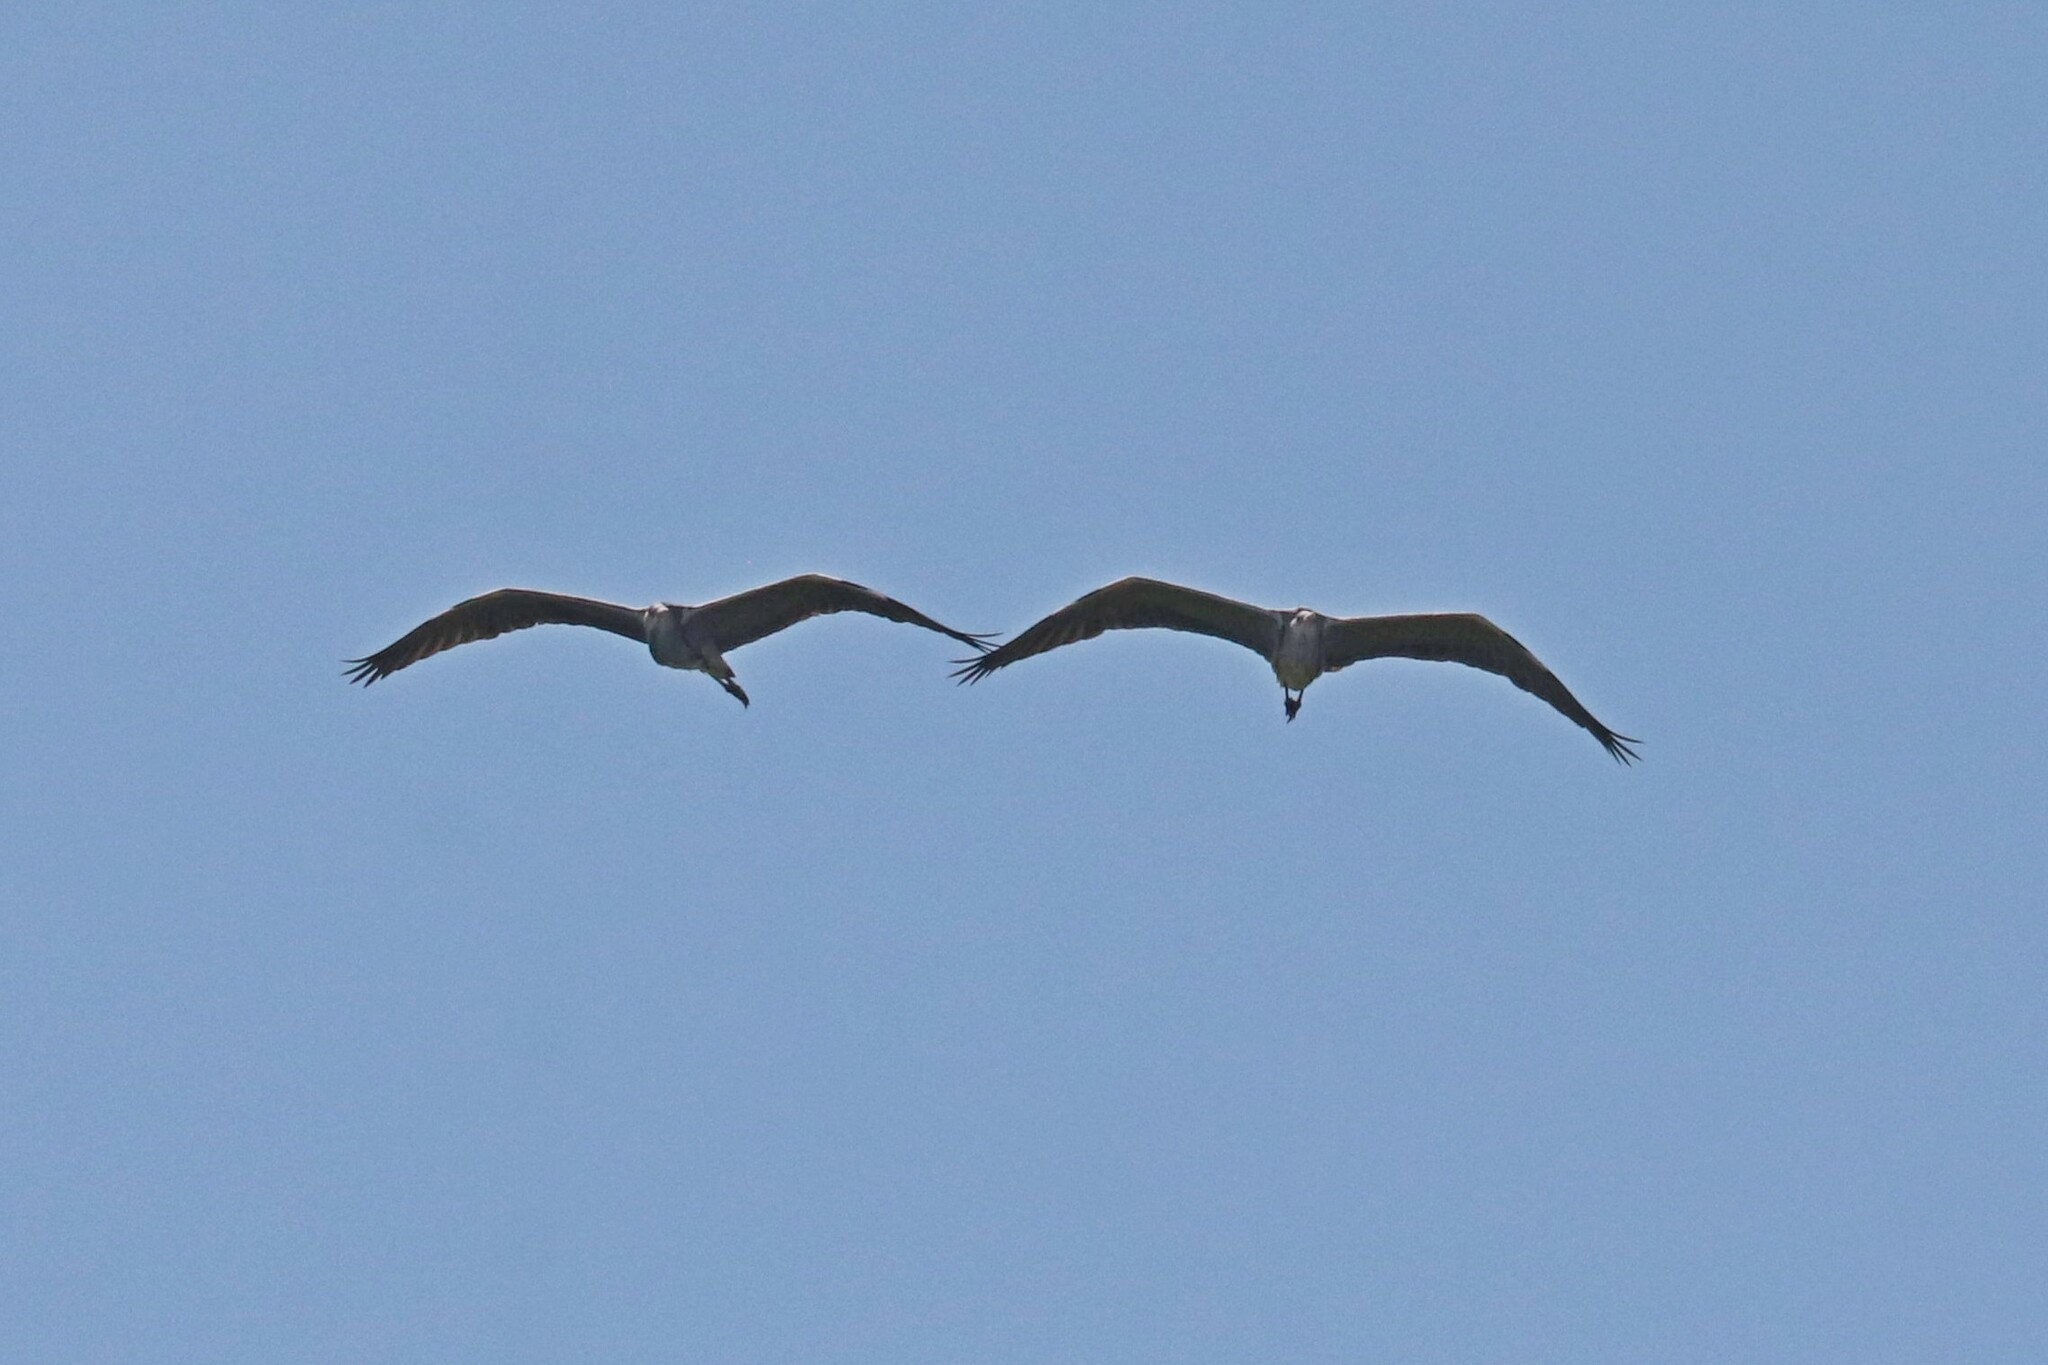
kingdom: Animalia
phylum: Chordata
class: Aves
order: Pelecaniformes
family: Ardeidae
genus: Ardea
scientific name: Ardea cinerea
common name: Grey heron
